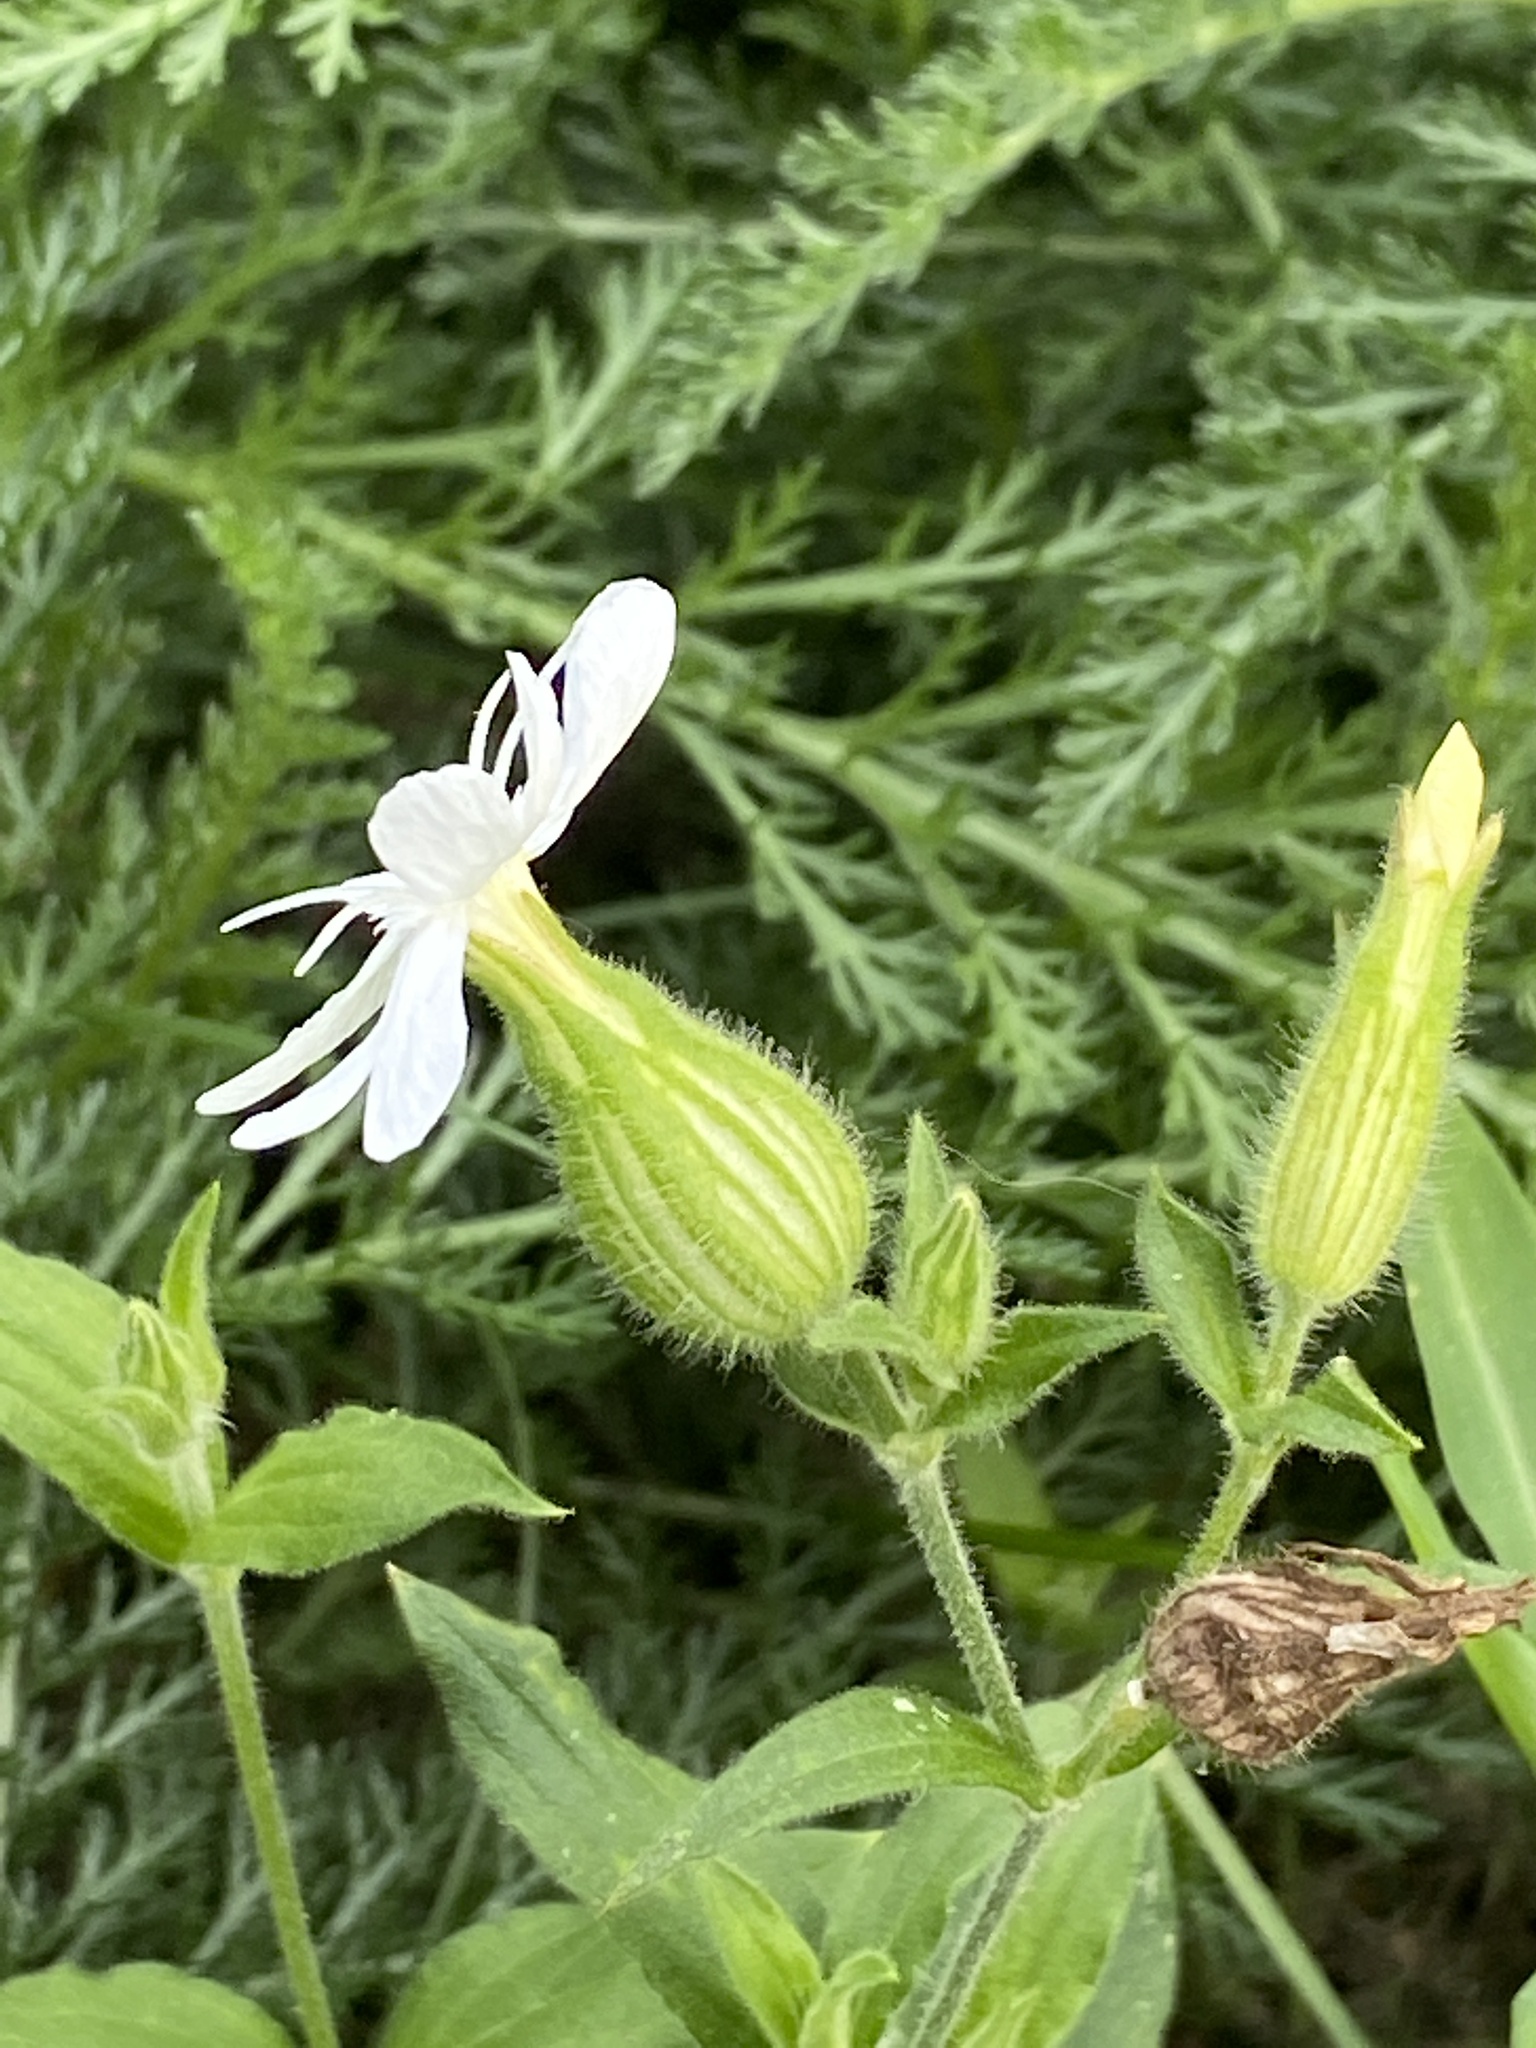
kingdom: Plantae
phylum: Tracheophyta
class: Magnoliopsida
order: Caryophyllales
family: Caryophyllaceae
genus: Silene
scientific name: Silene latifolia
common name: White campion
